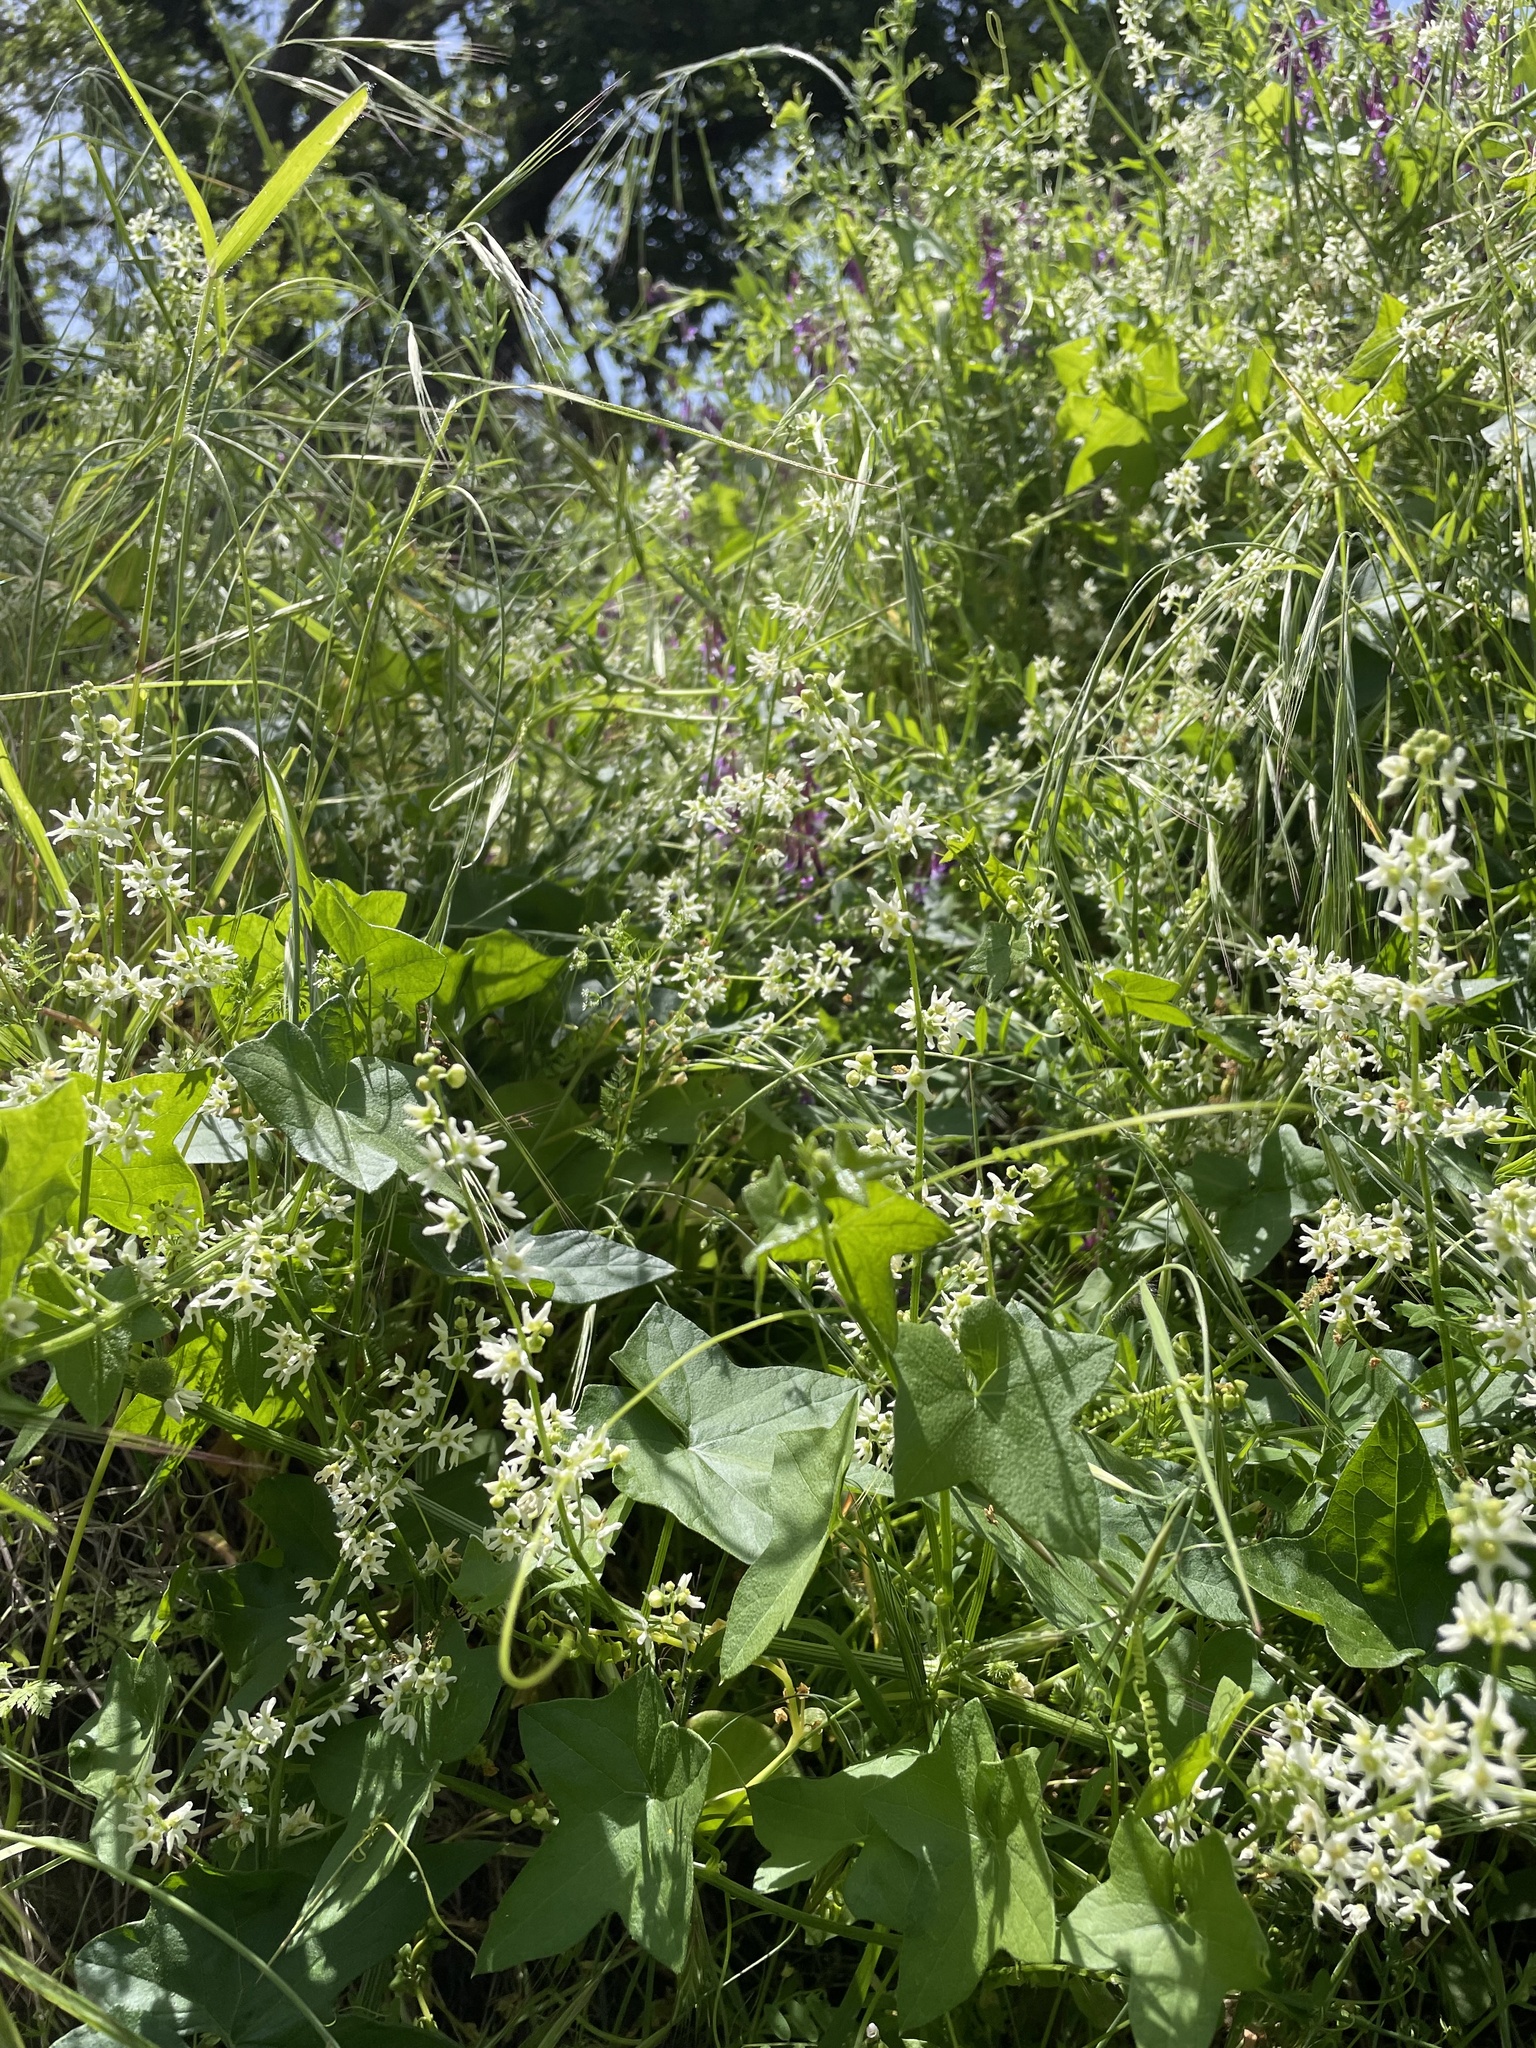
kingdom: Plantae
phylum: Tracheophyta
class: Magnoliopsida
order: Cucurbitales
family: Cucurbitaceae
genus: Marah
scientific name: Marah fabacea
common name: California manroot
